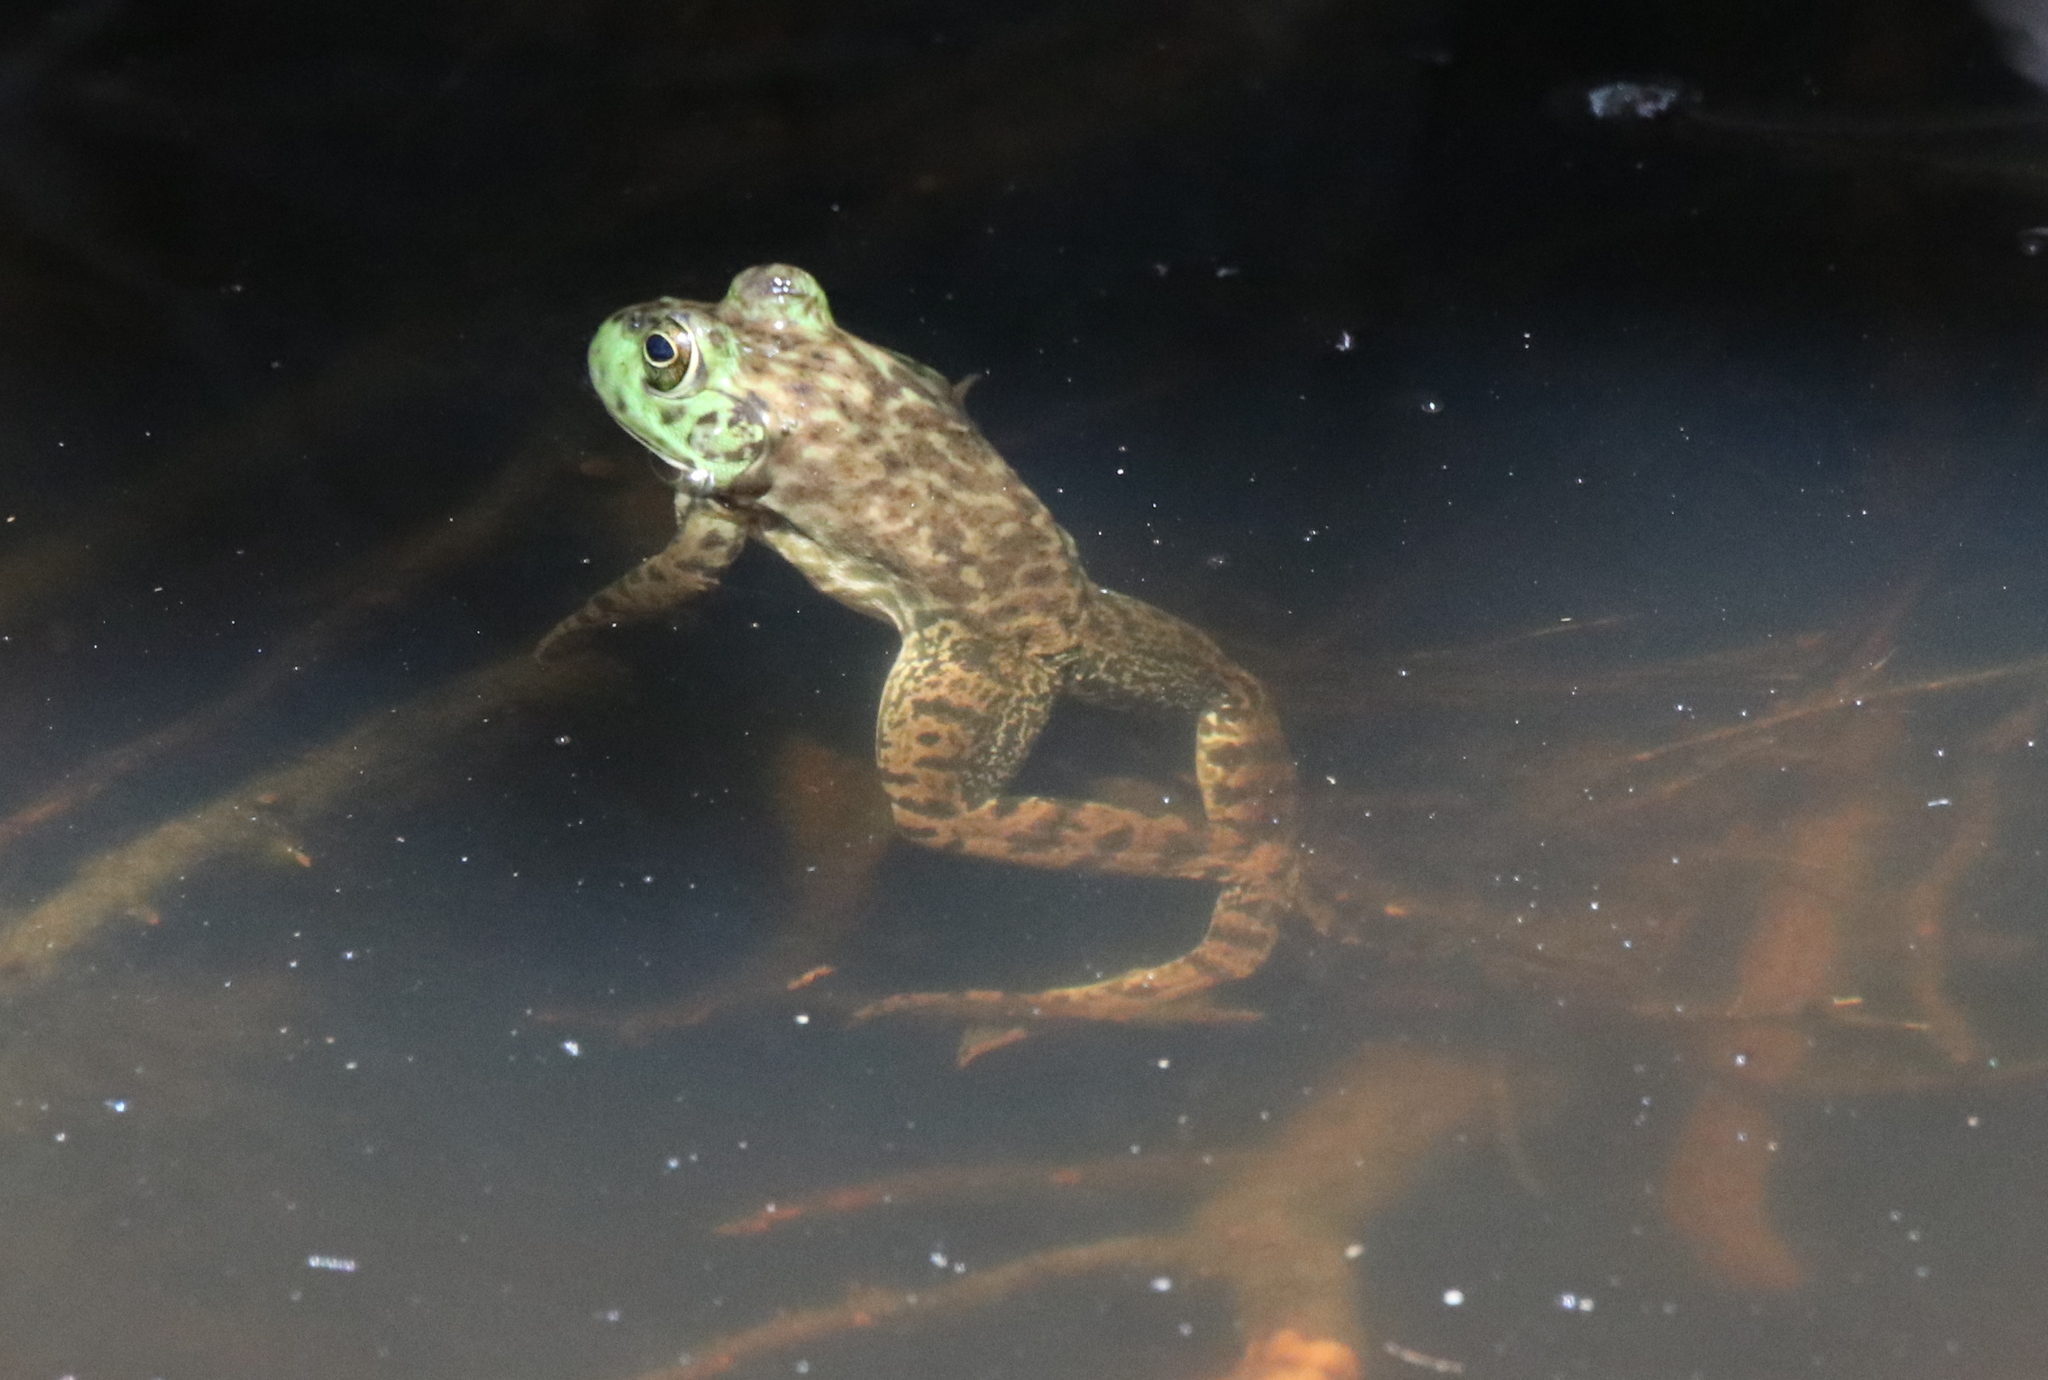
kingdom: Animalia
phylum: Chordata
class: Amphibia
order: Anura
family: Ranidae
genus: Lithobates
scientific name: Lithobates catesbeianus
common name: American bullfrog
